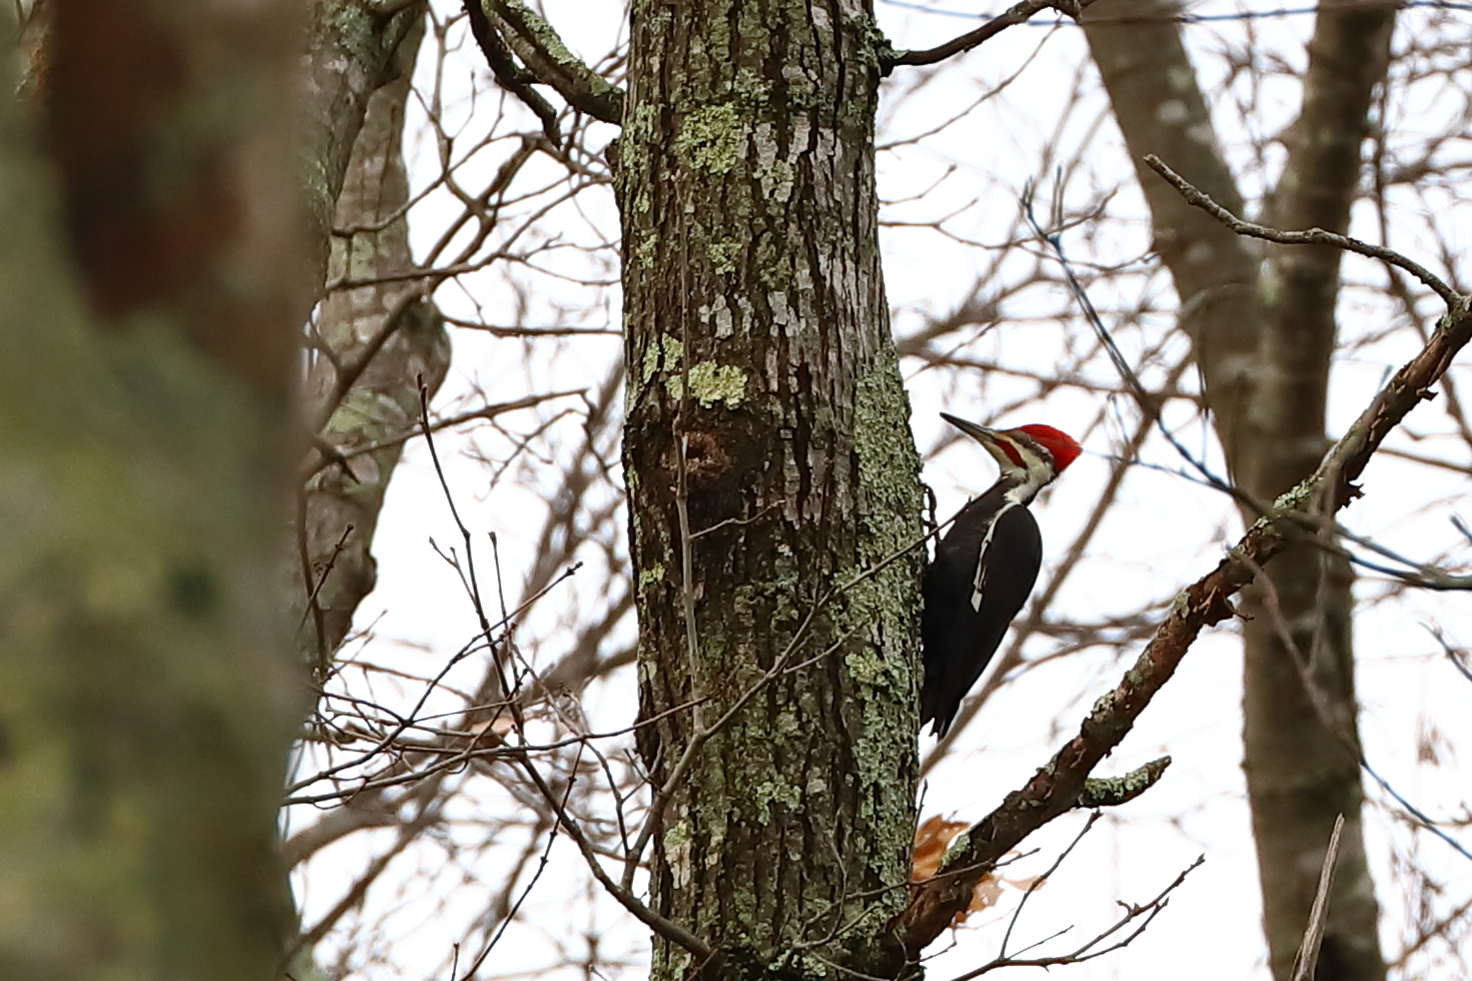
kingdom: Animalia
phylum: Chordata
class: Aves
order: Piciformes
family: Picidae
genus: Dryocopus
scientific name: Dryocopus pileatus
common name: Pileated woodpecker
